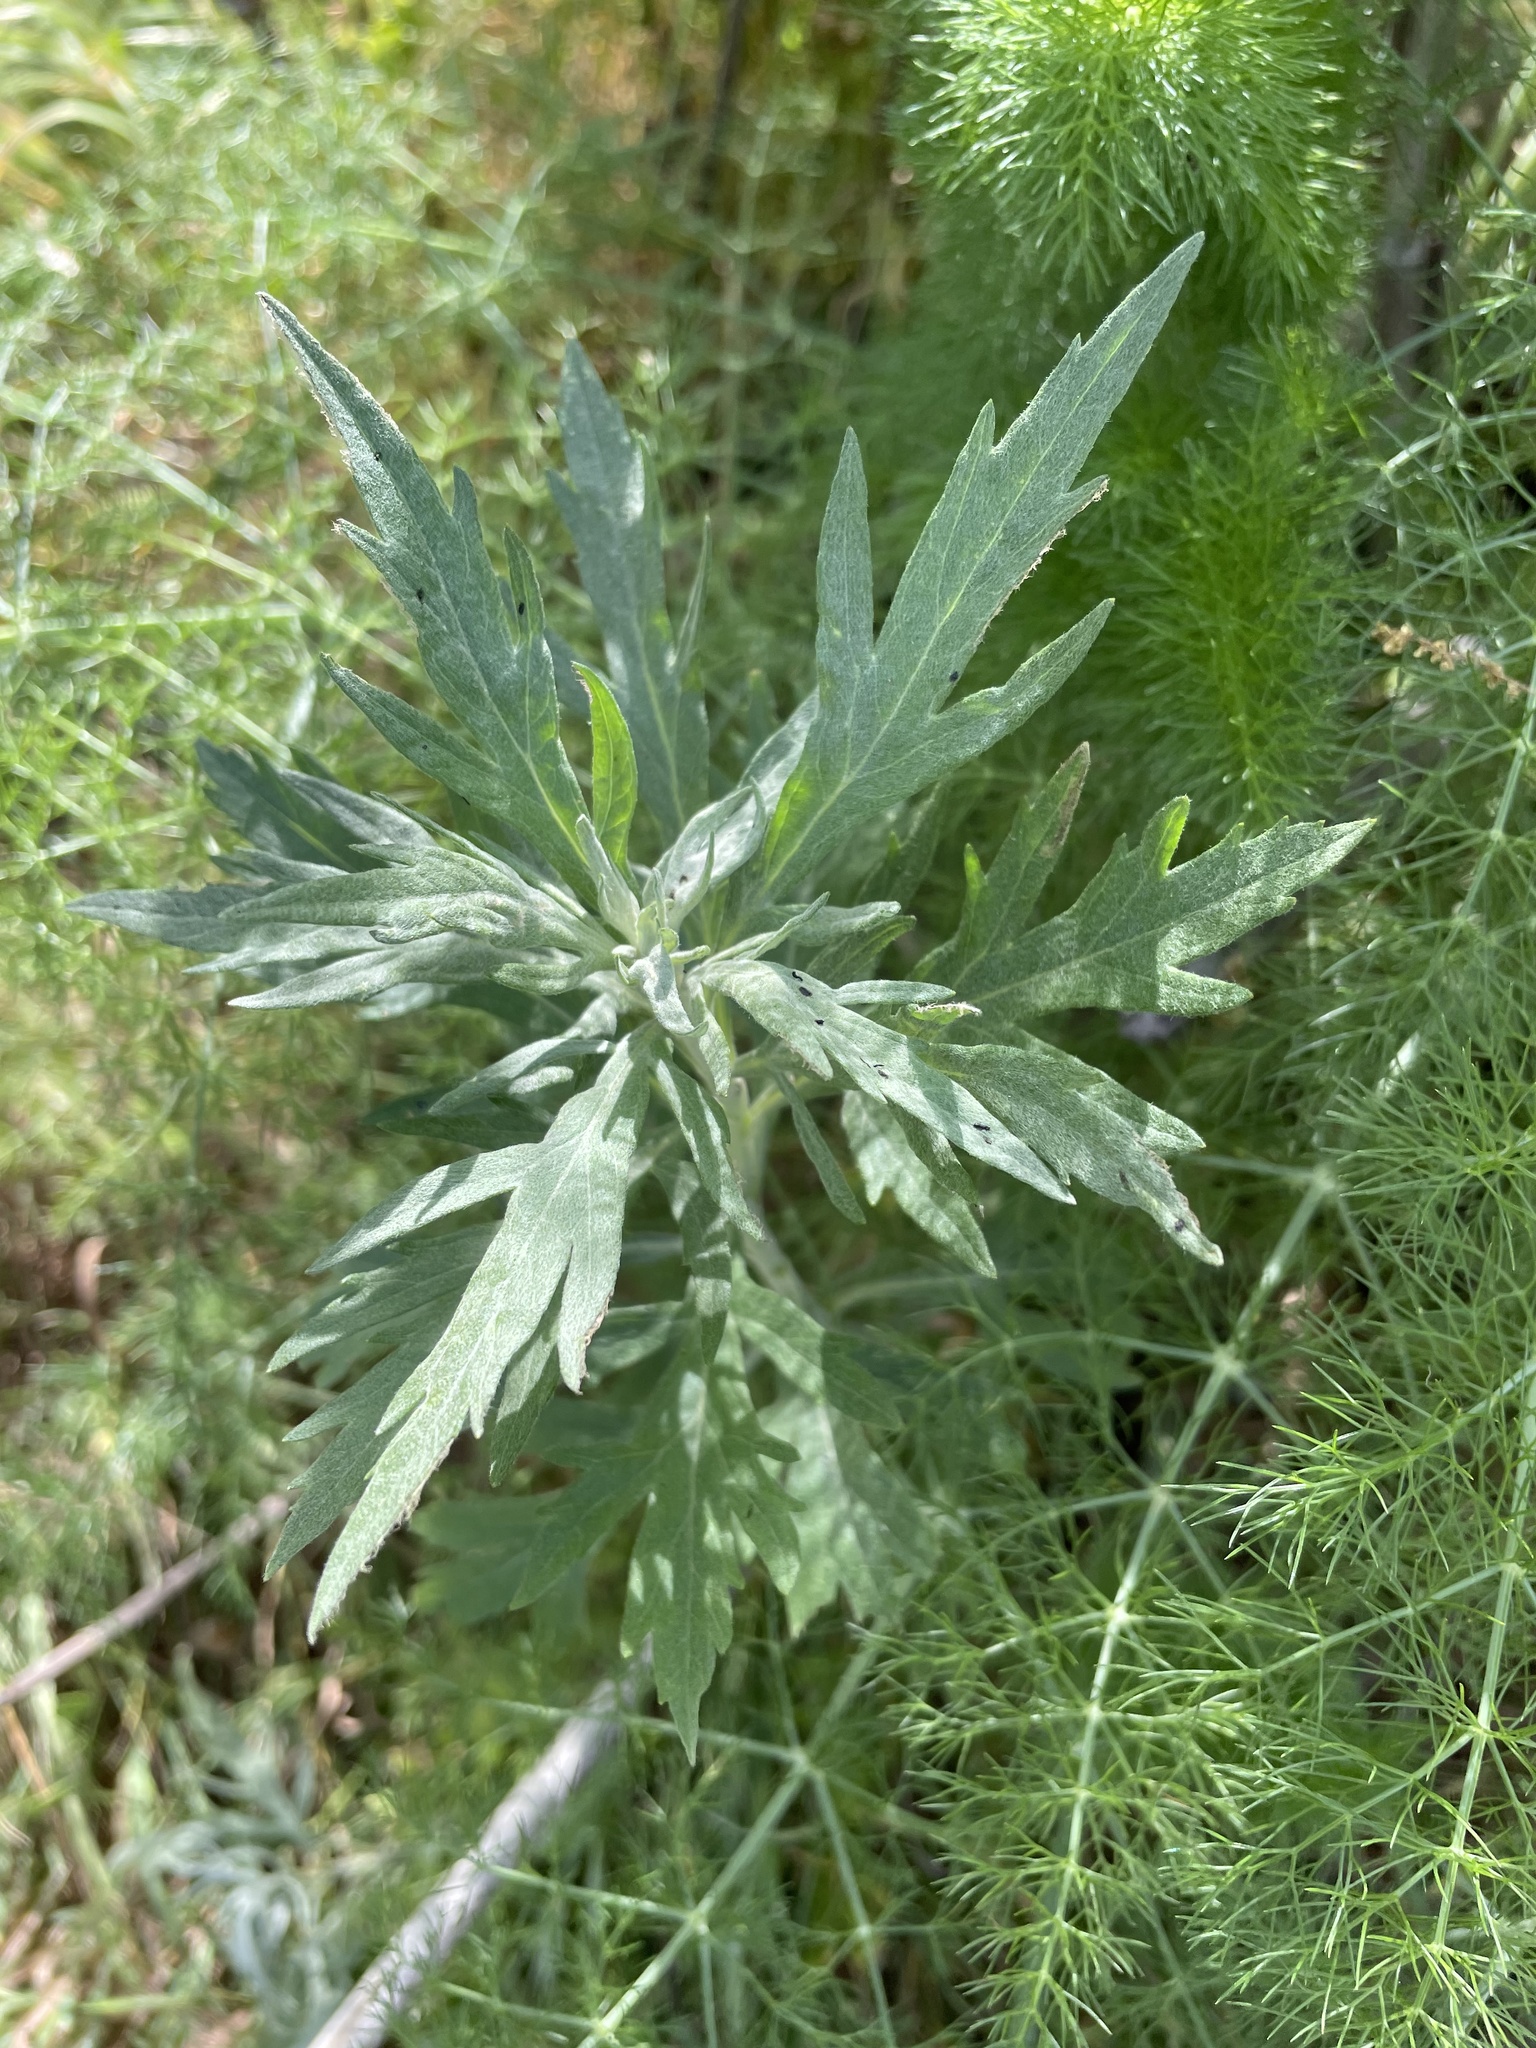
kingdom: Plantae
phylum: Tracheophyta
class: Magnoliopsida
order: Asterales
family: Asteraceae
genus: Artemisia
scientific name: Artemisia douglasiana
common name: Northwest mugwort
